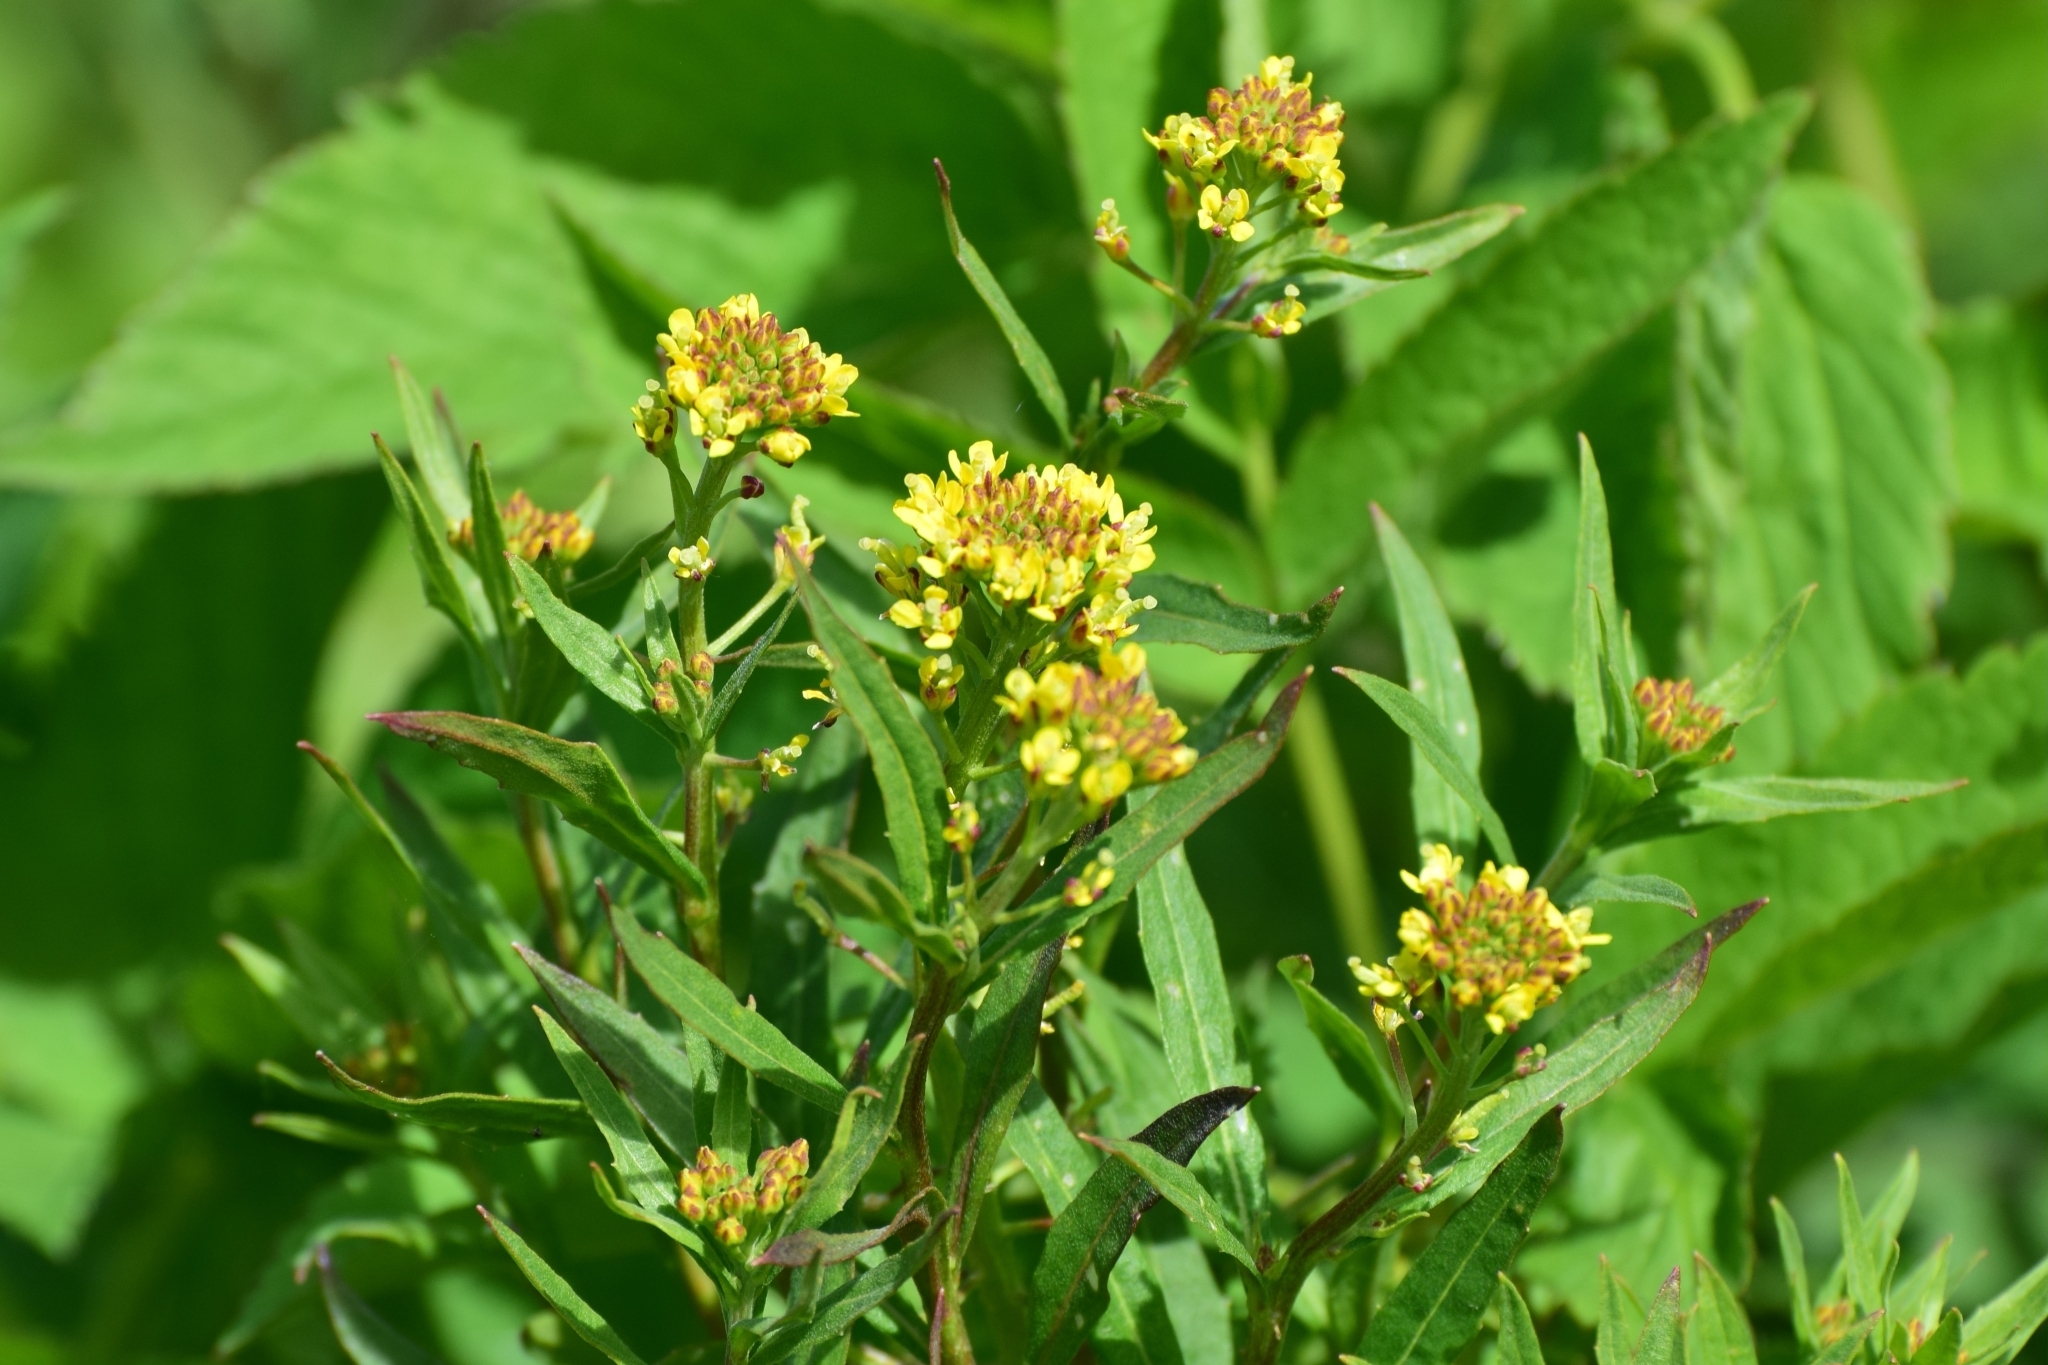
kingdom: Plantae
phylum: Tracheophyta
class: Magnoliopsida
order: Brassicales
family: Brassicaceae
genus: Erysimum
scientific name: Erysimum cheiranthoides
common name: Treacle mustard
